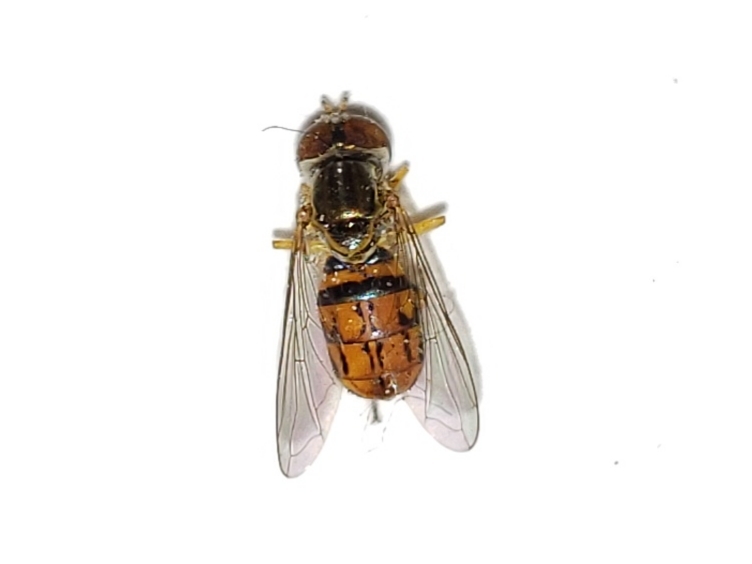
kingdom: Animalia
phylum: Arthropoda
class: Insecta
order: Diptera
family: Syrphidae
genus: Toxomerus
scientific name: Toxomerus boscii
